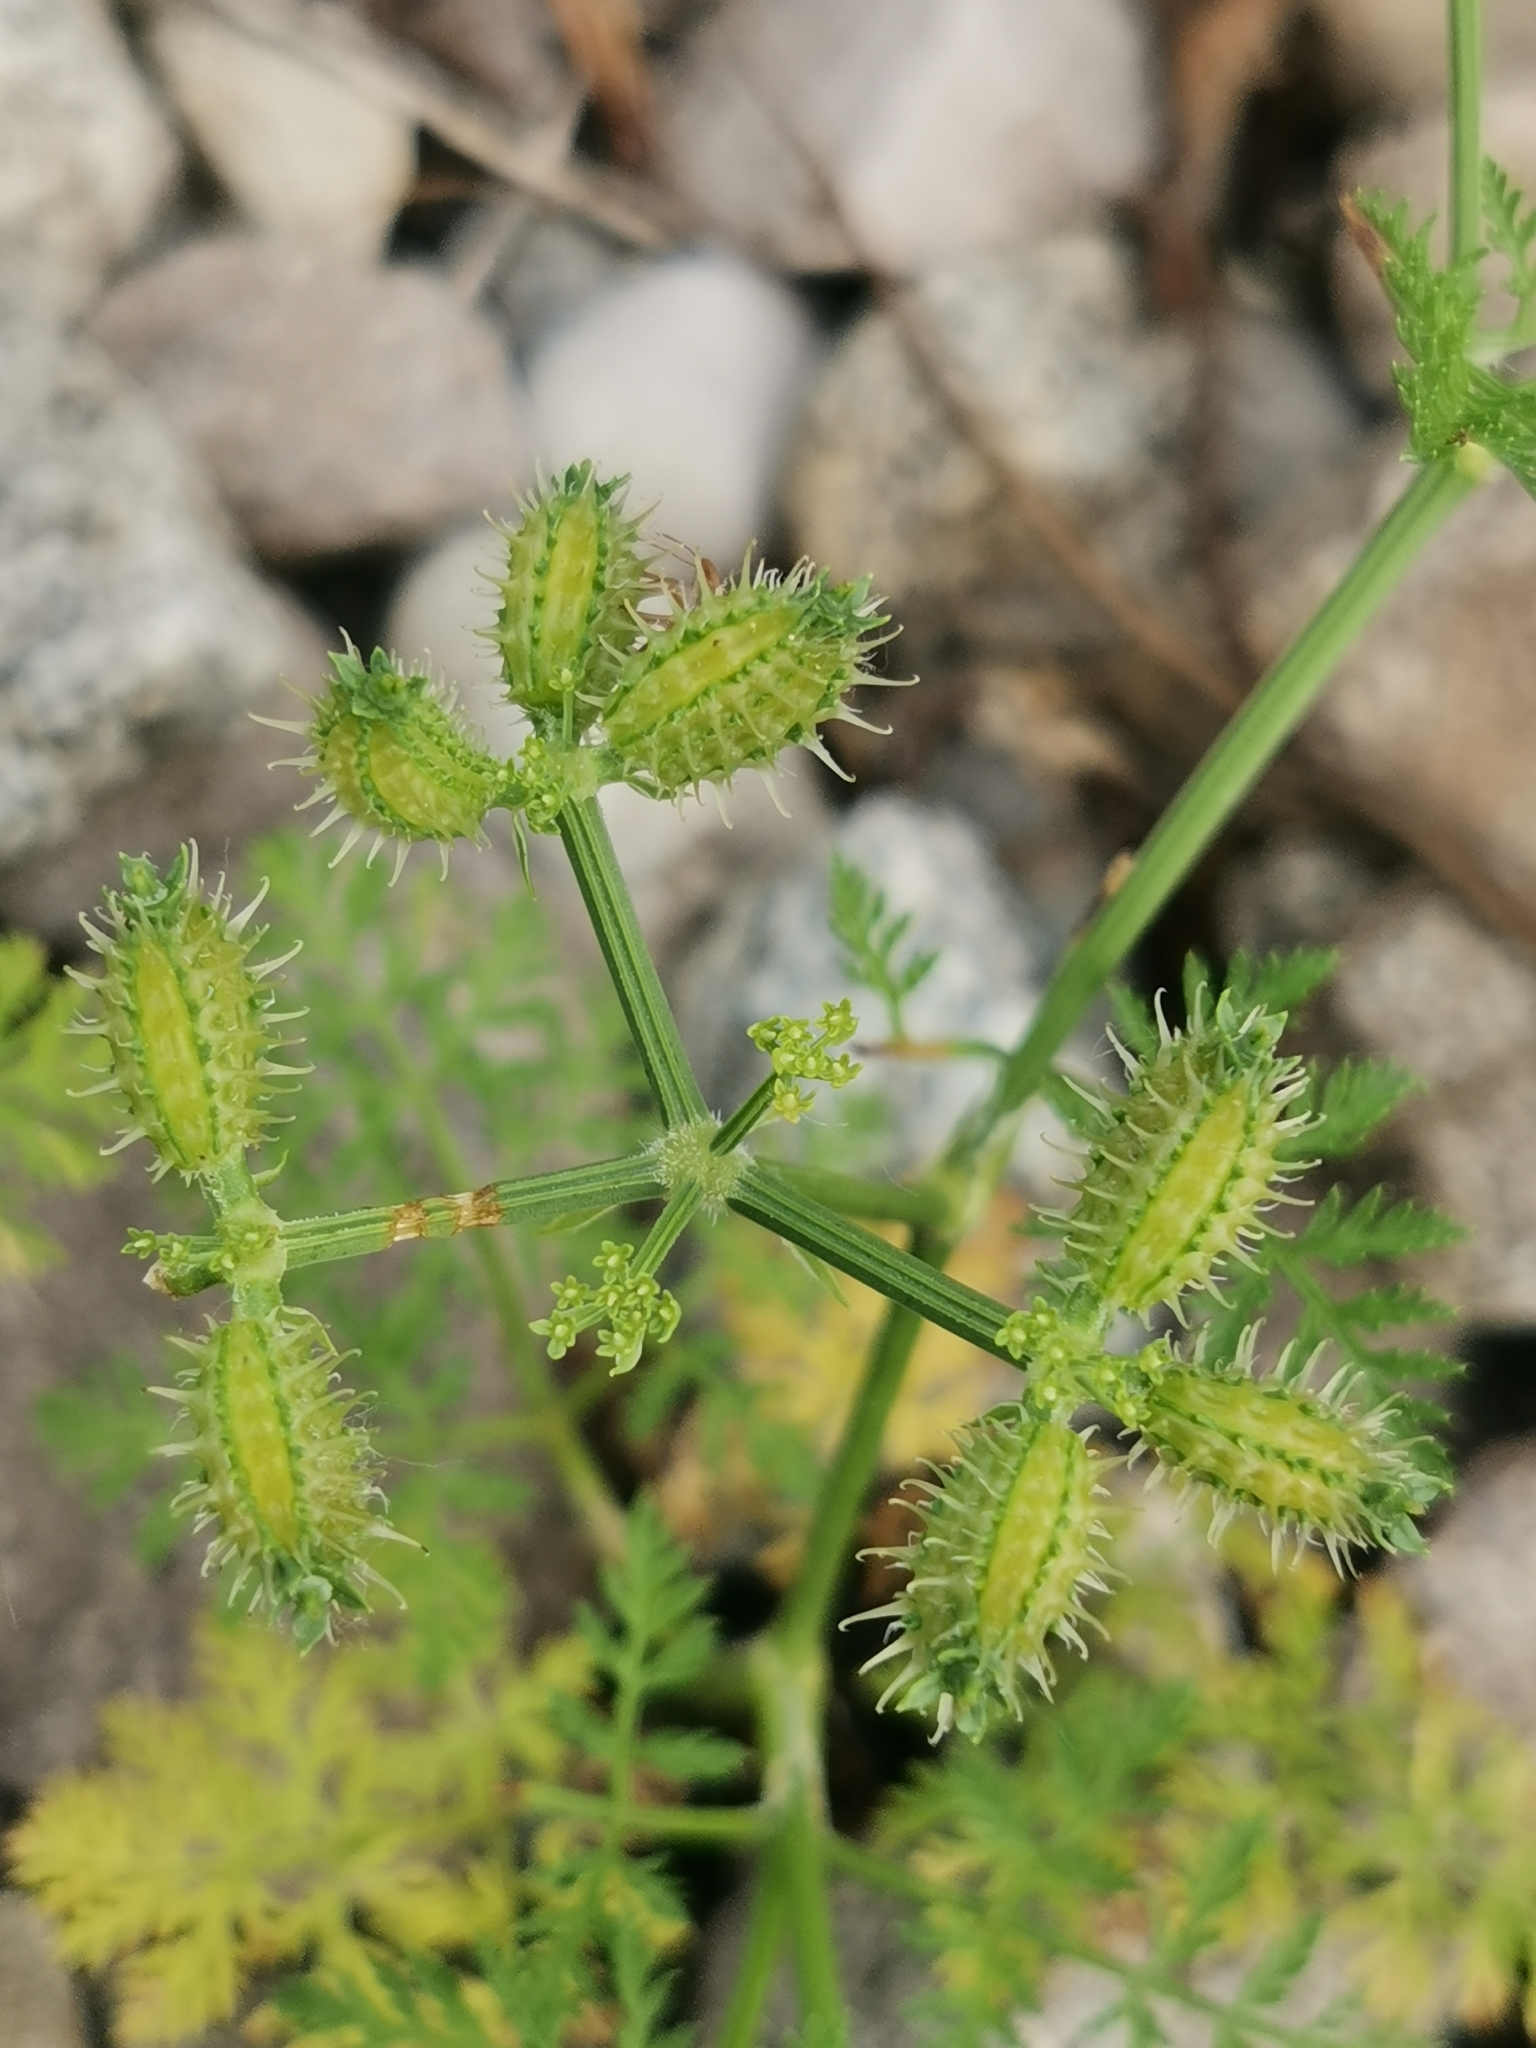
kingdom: Plantae
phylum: Tracheophyta
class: Magnoliopsida
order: Apiales
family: Apiaceae
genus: Caucalis
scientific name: Caucalis platycarpos
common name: Small bur-parsley
